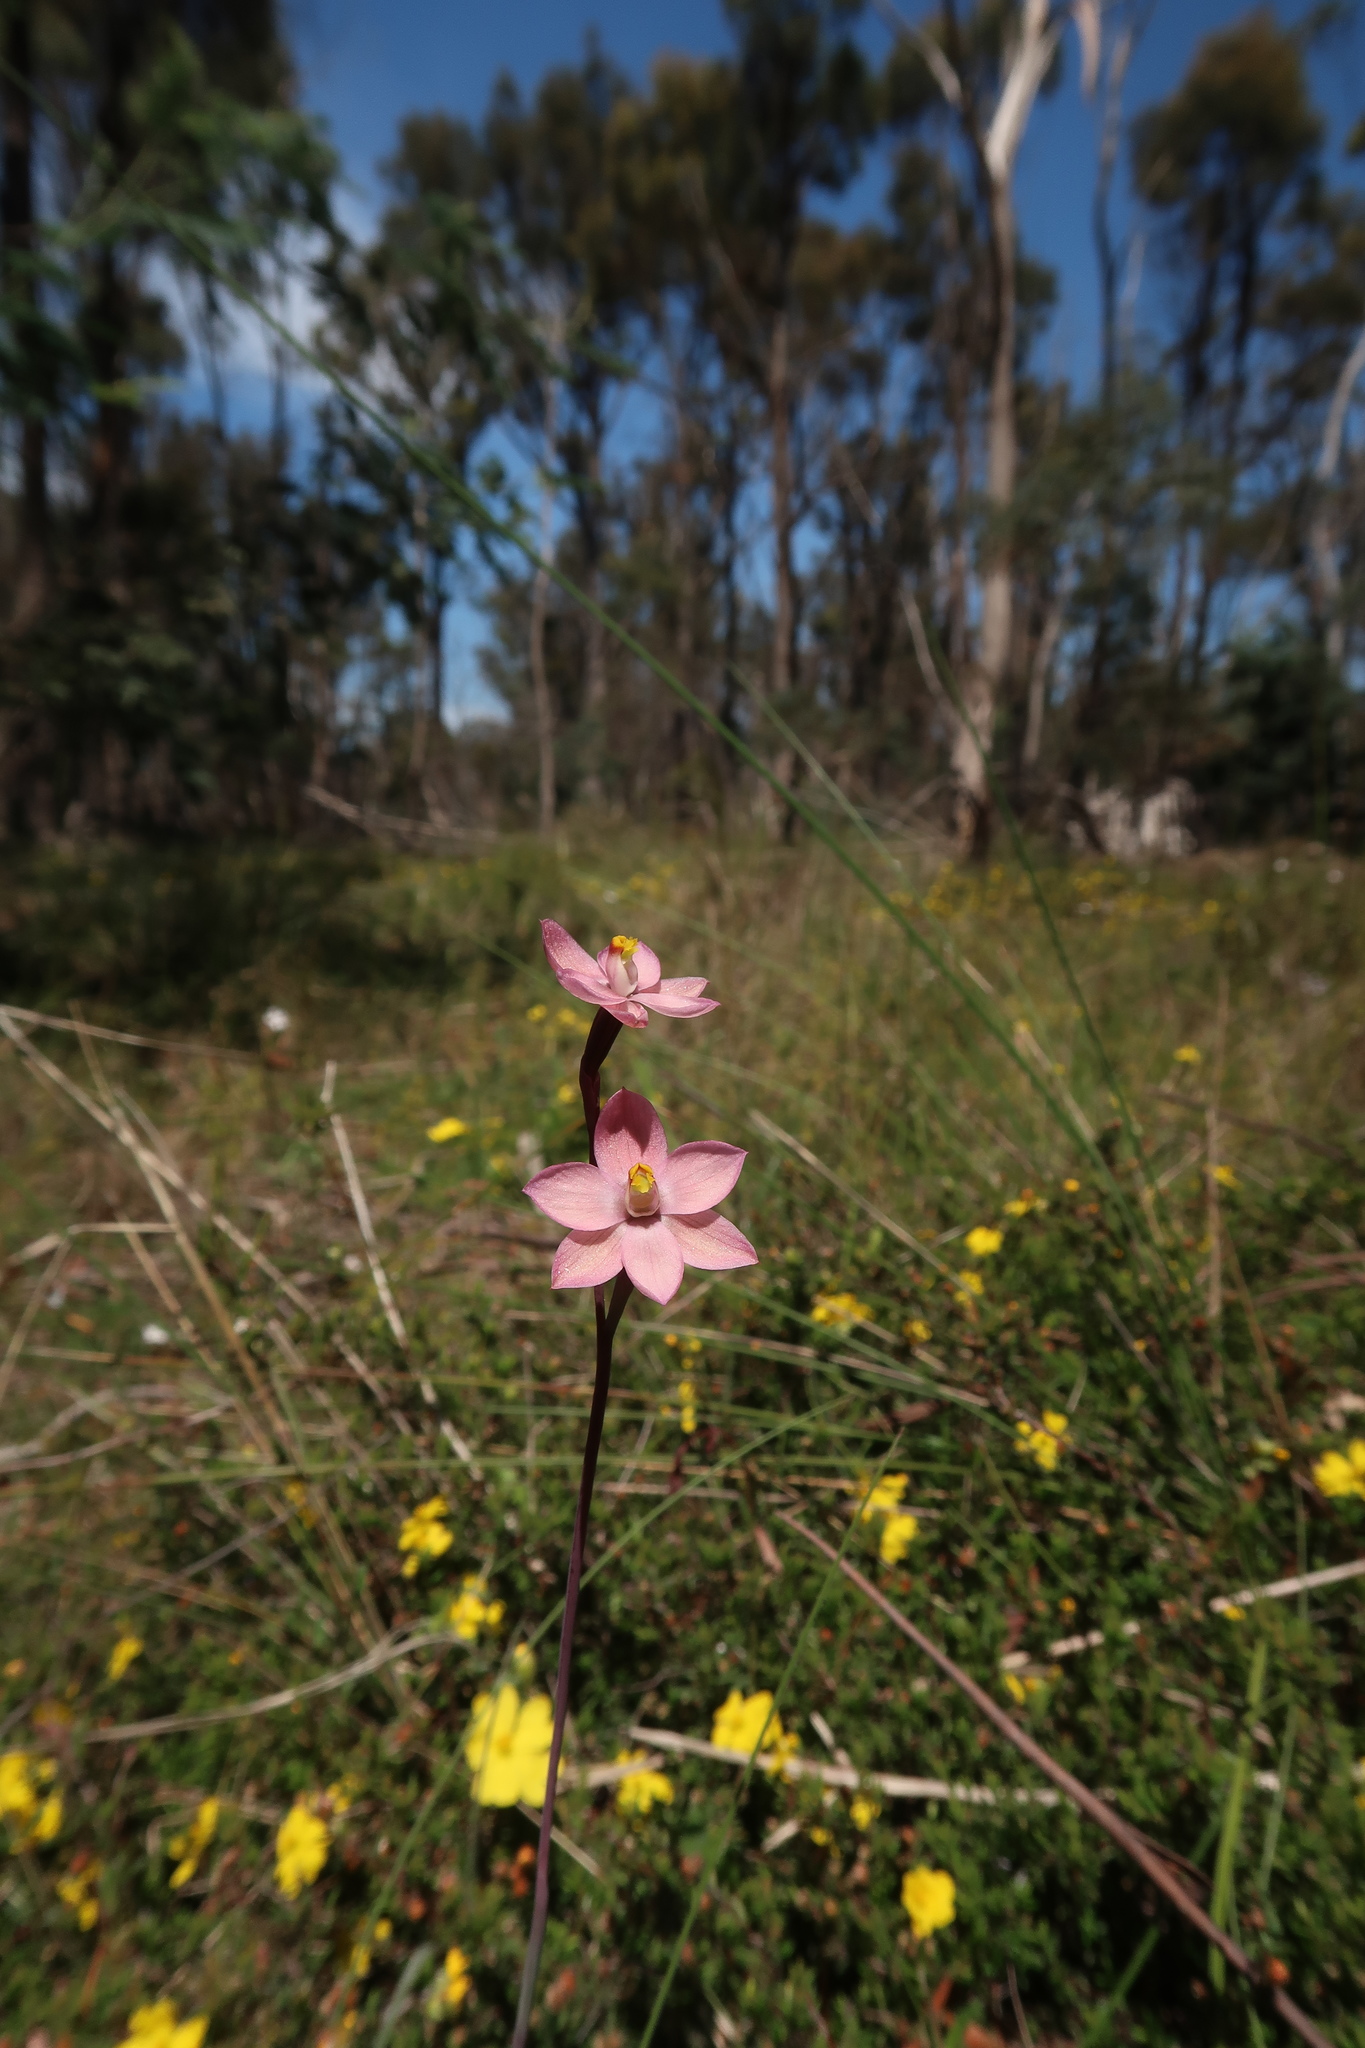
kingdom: Plantae
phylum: Tracheophyta
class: Liliopsida
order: Asparagales
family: Orchidaceae
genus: Thelymitra
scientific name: Thelymitra rubra
